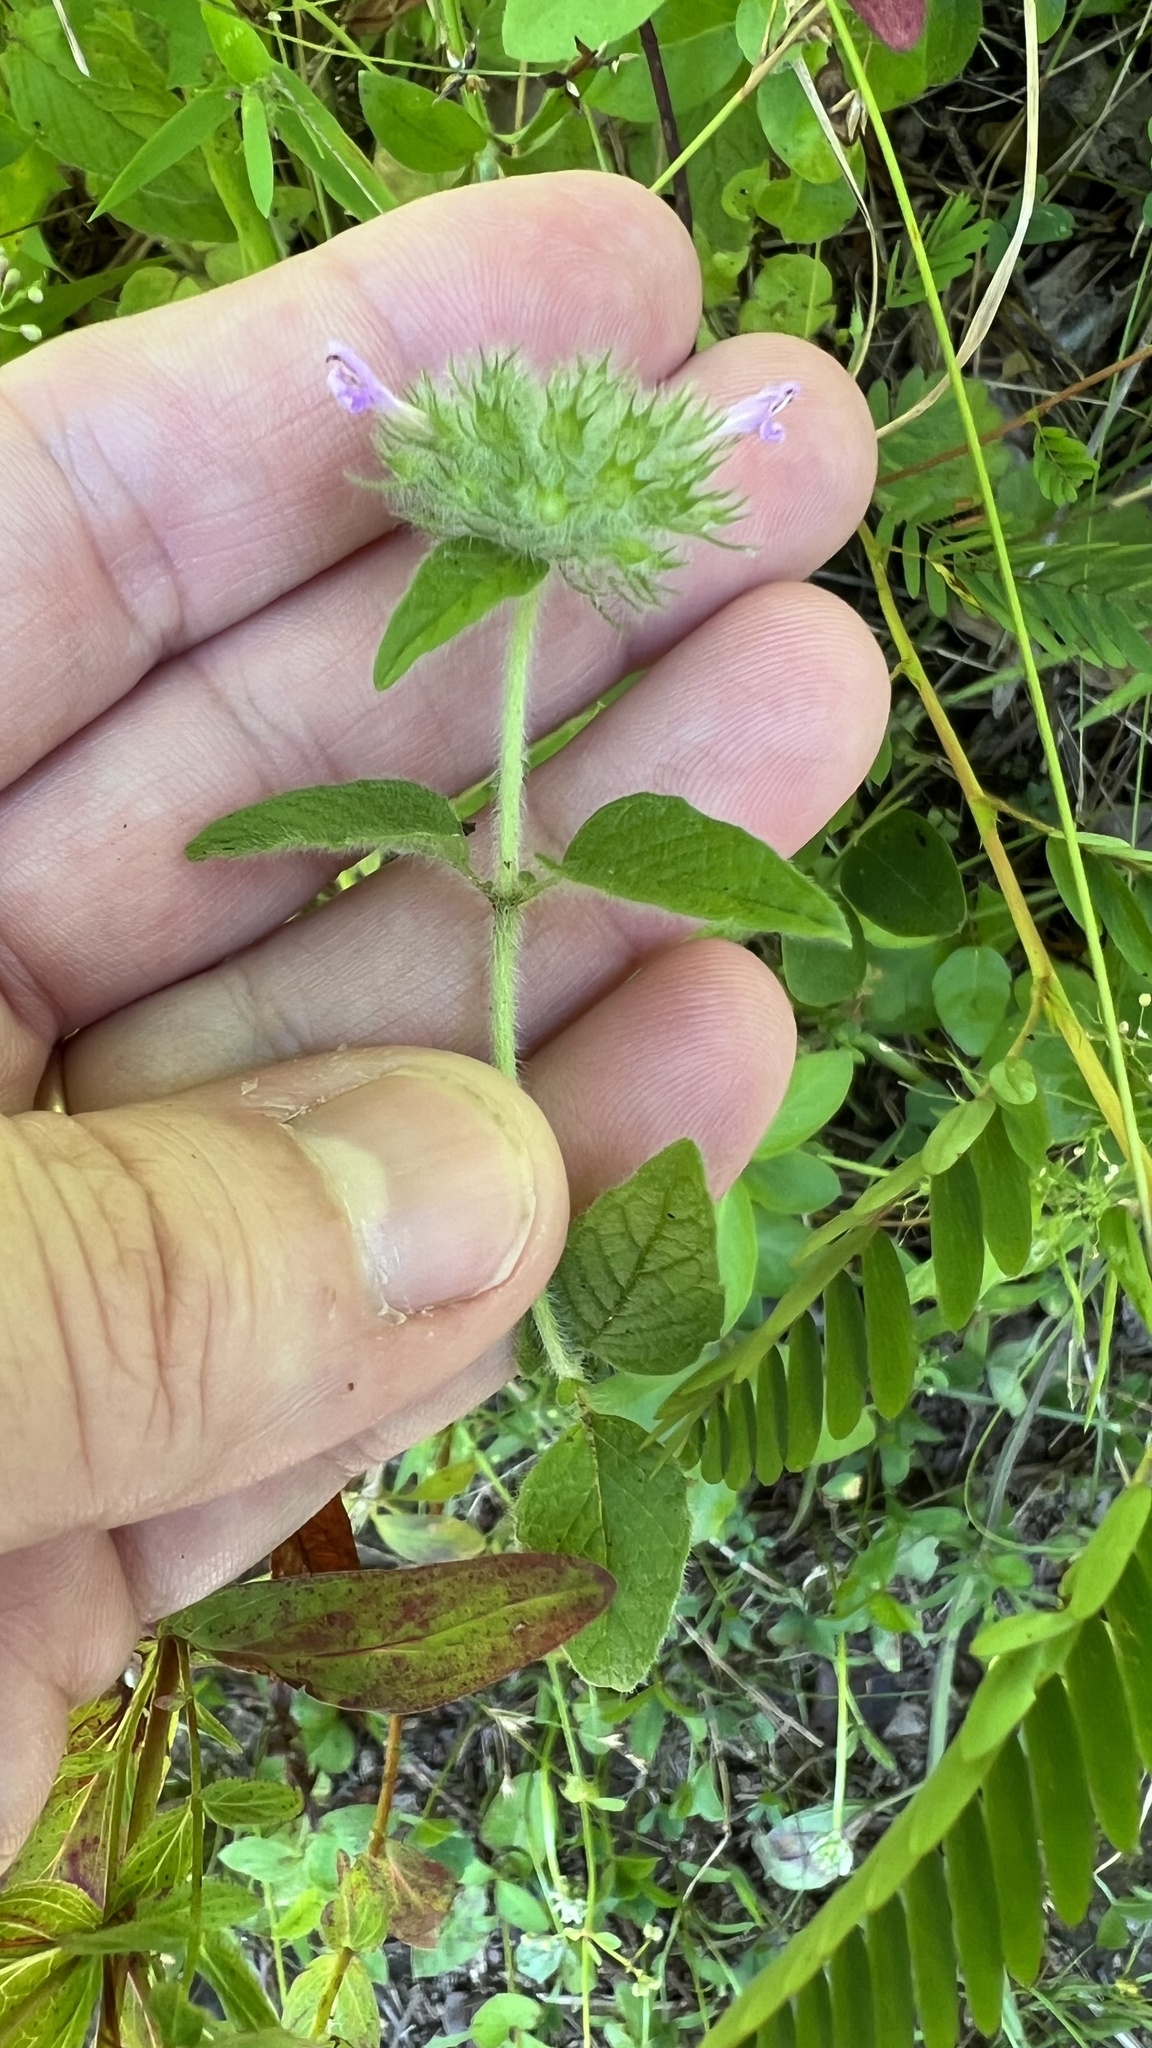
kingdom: Plantae
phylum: Tracheophyta
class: Magnoliopsida
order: Lamiales
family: Lamiaceae
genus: Clinopodium
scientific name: Clinopodium vulgare
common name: Wild basil
